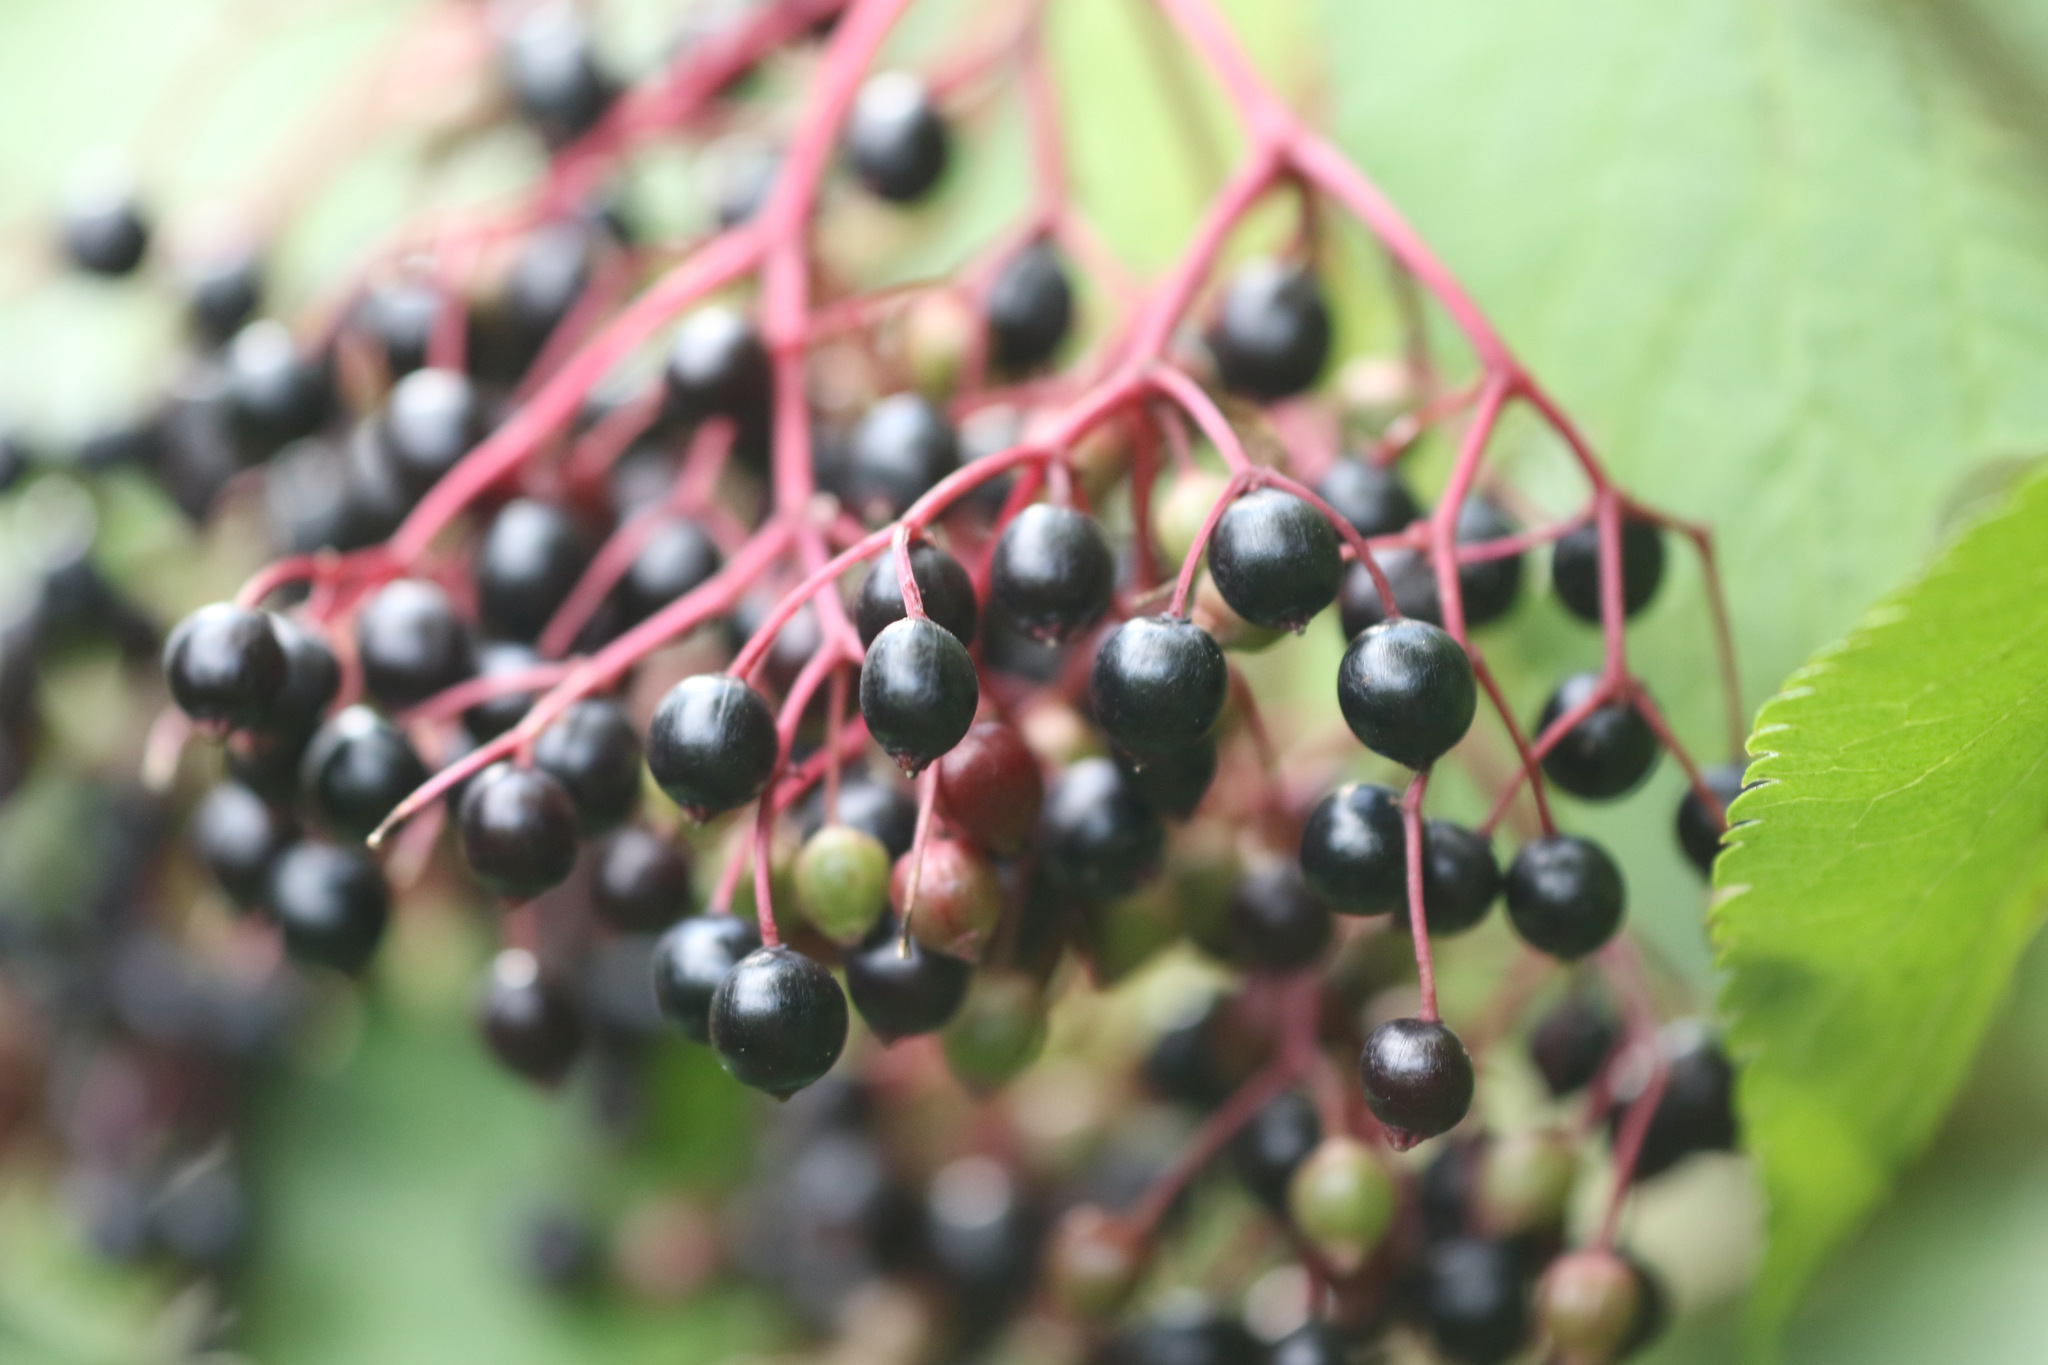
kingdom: Plantae
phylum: Tracheophyta
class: Magnoliopsida
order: Dipsacales
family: Viburnaceae
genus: Sambucus
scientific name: Sambucus nigra
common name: Elder
